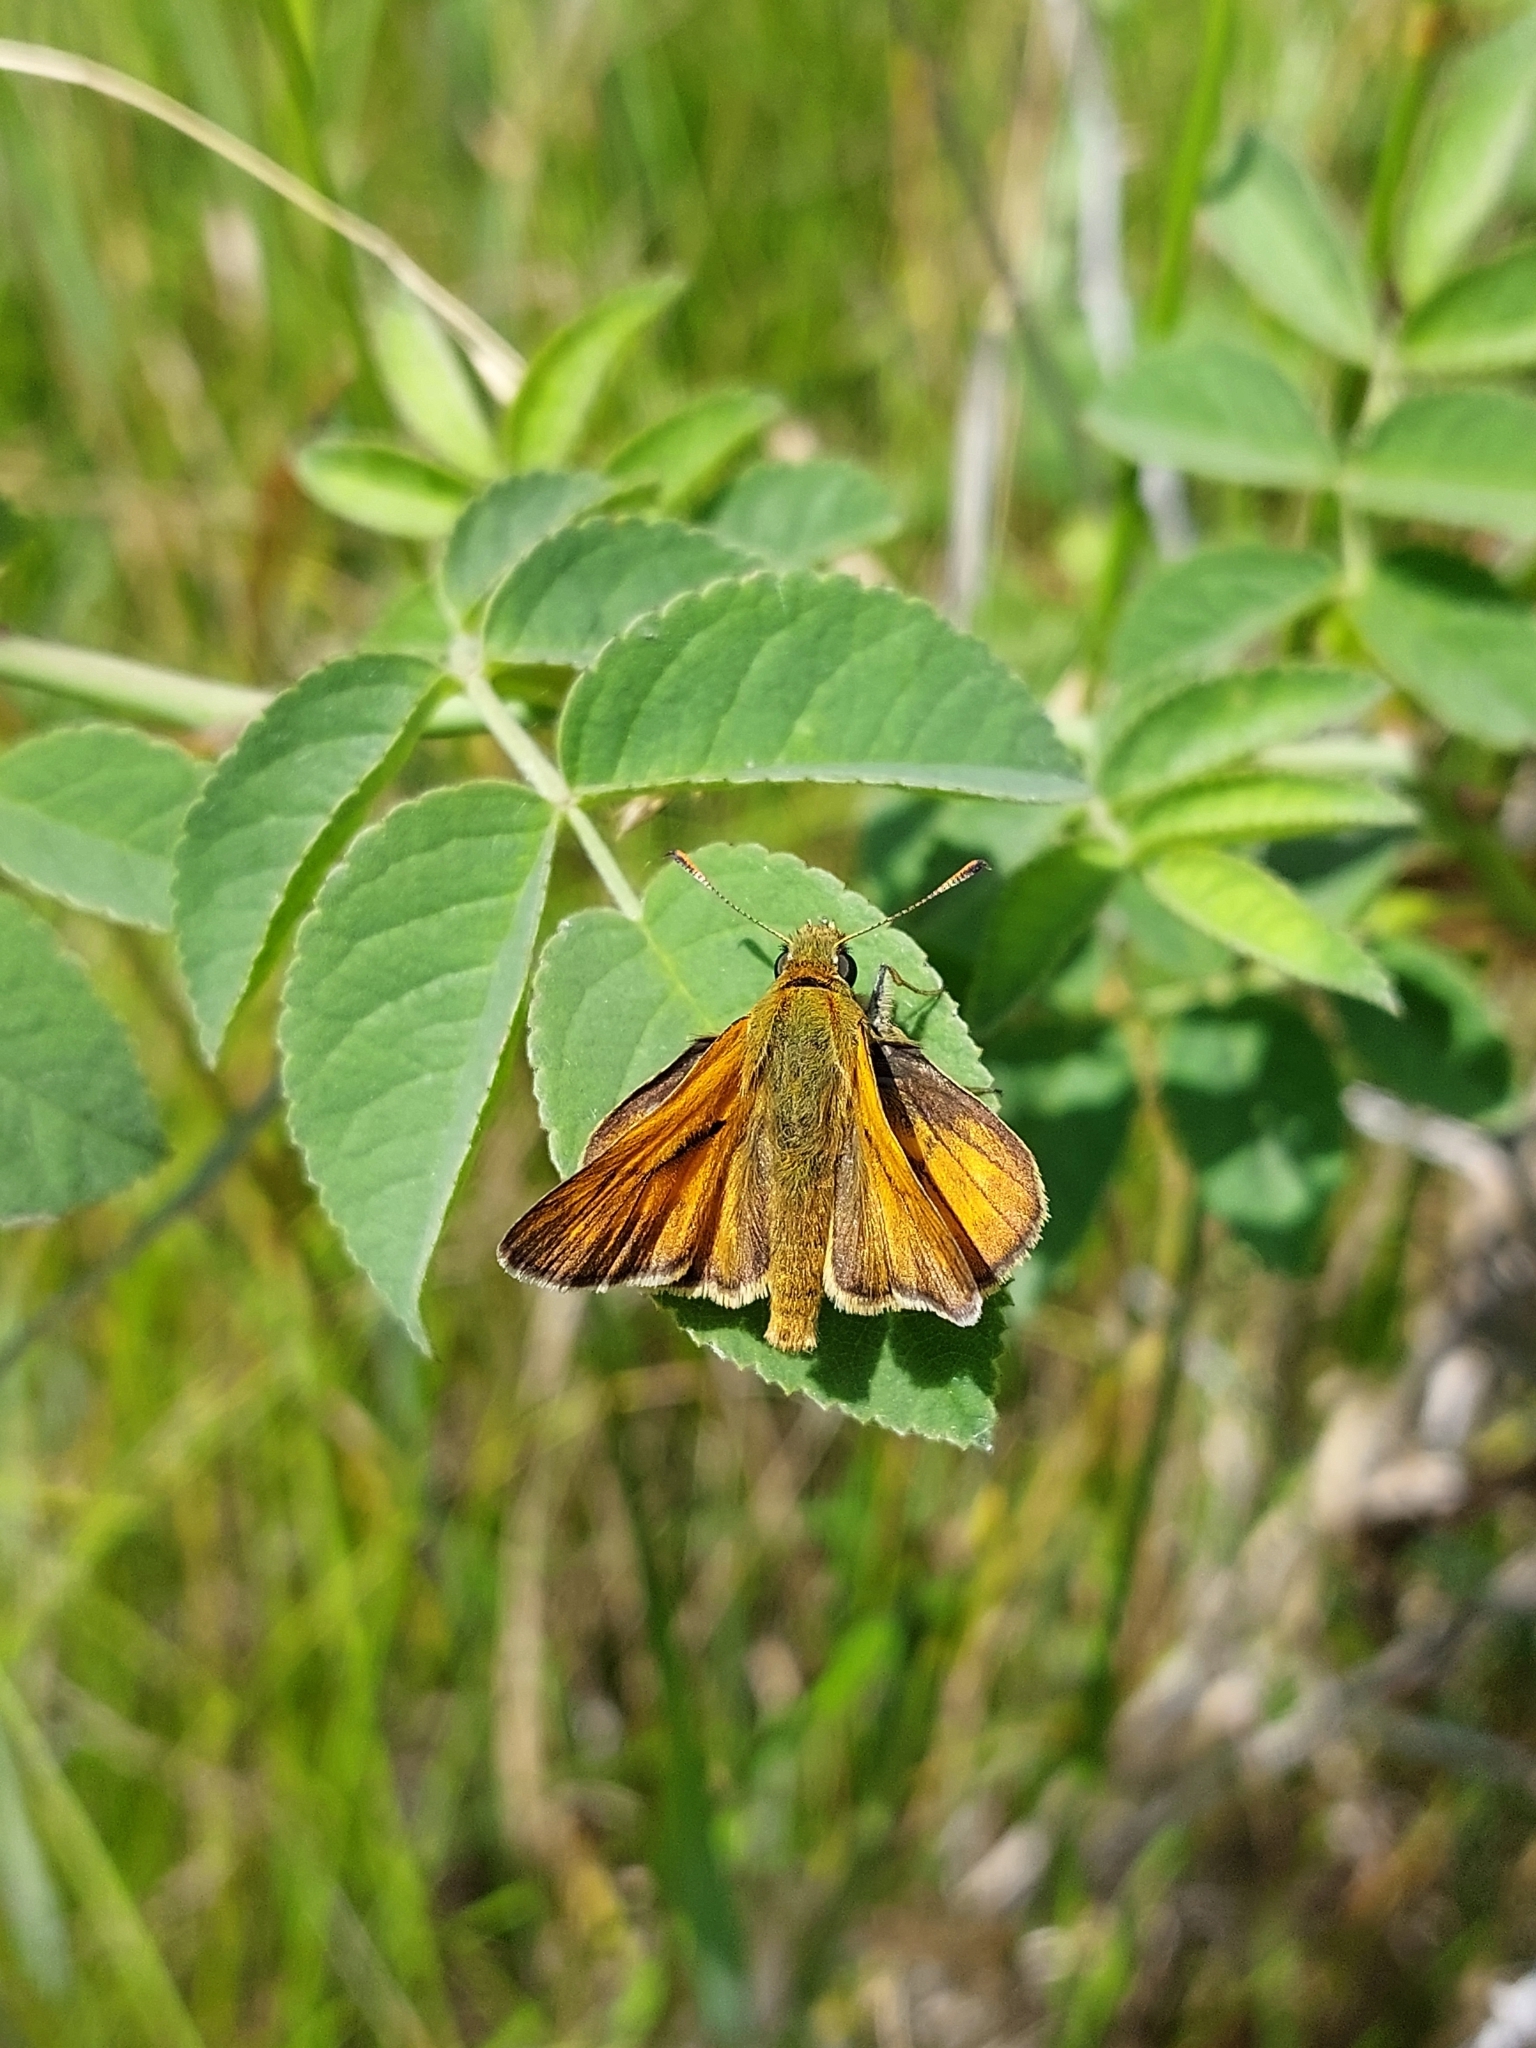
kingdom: Animalia
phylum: Arthropoda
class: Insecta
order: Lepidoptera
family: Hesperiidae
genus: Ochlodes
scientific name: Ochlodes venata
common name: Large skipper
